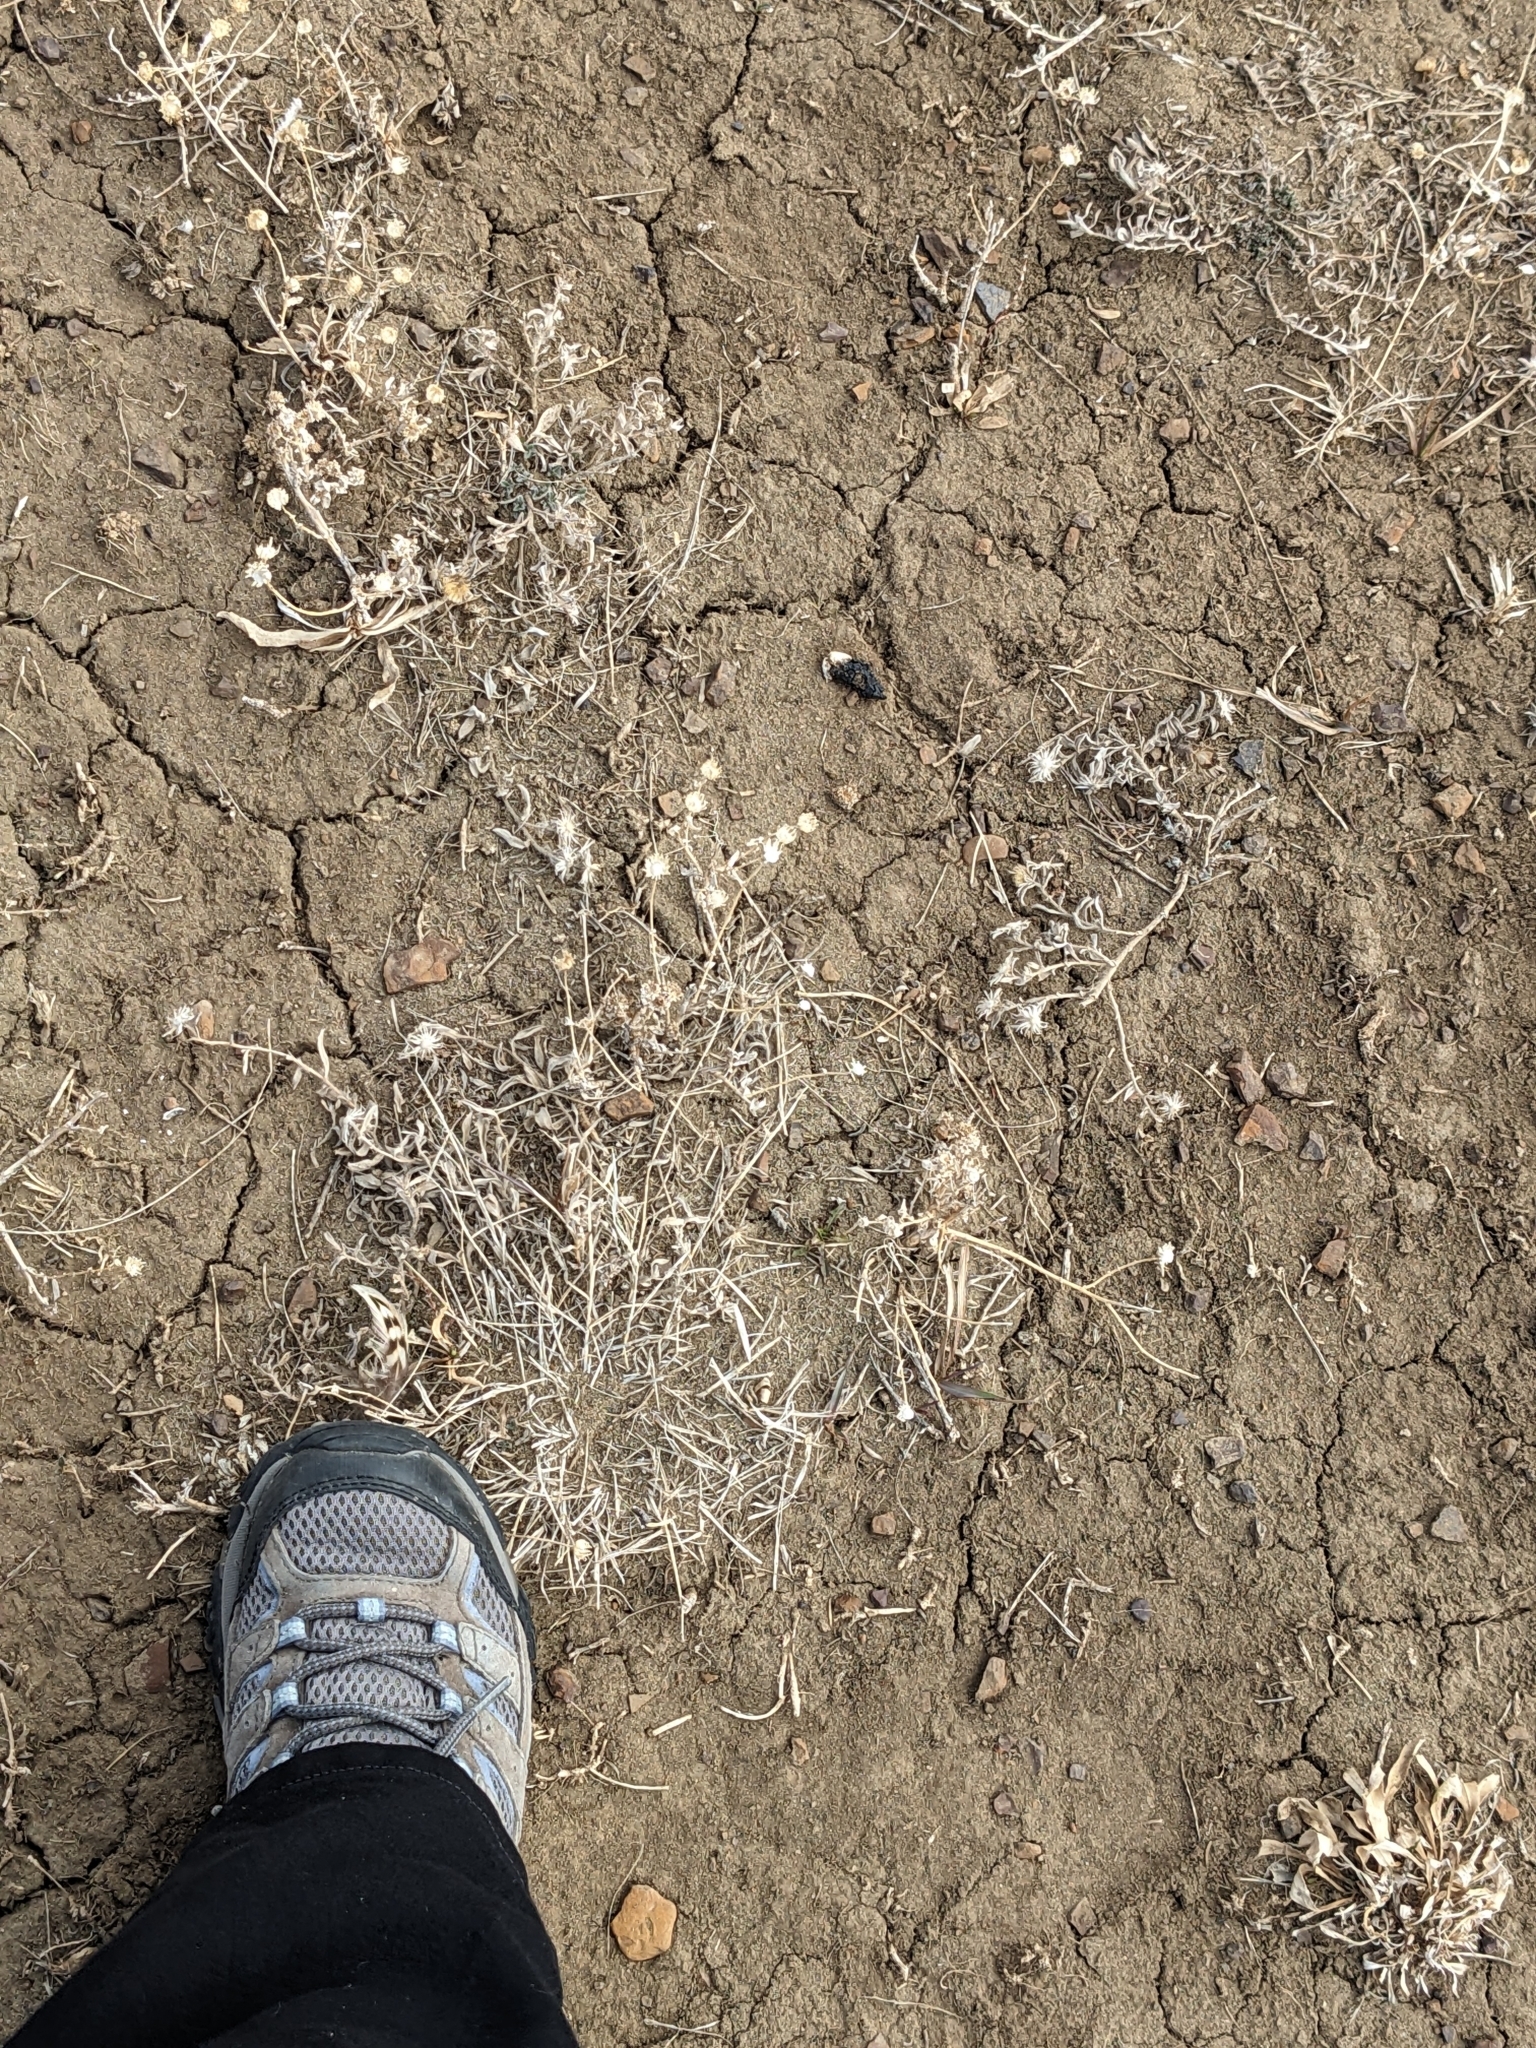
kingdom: Animalia
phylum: Chordata
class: Aves
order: Galliformes
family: Phasianidae
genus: Phasianus
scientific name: Phasianus colchicus
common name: Common pheasant
